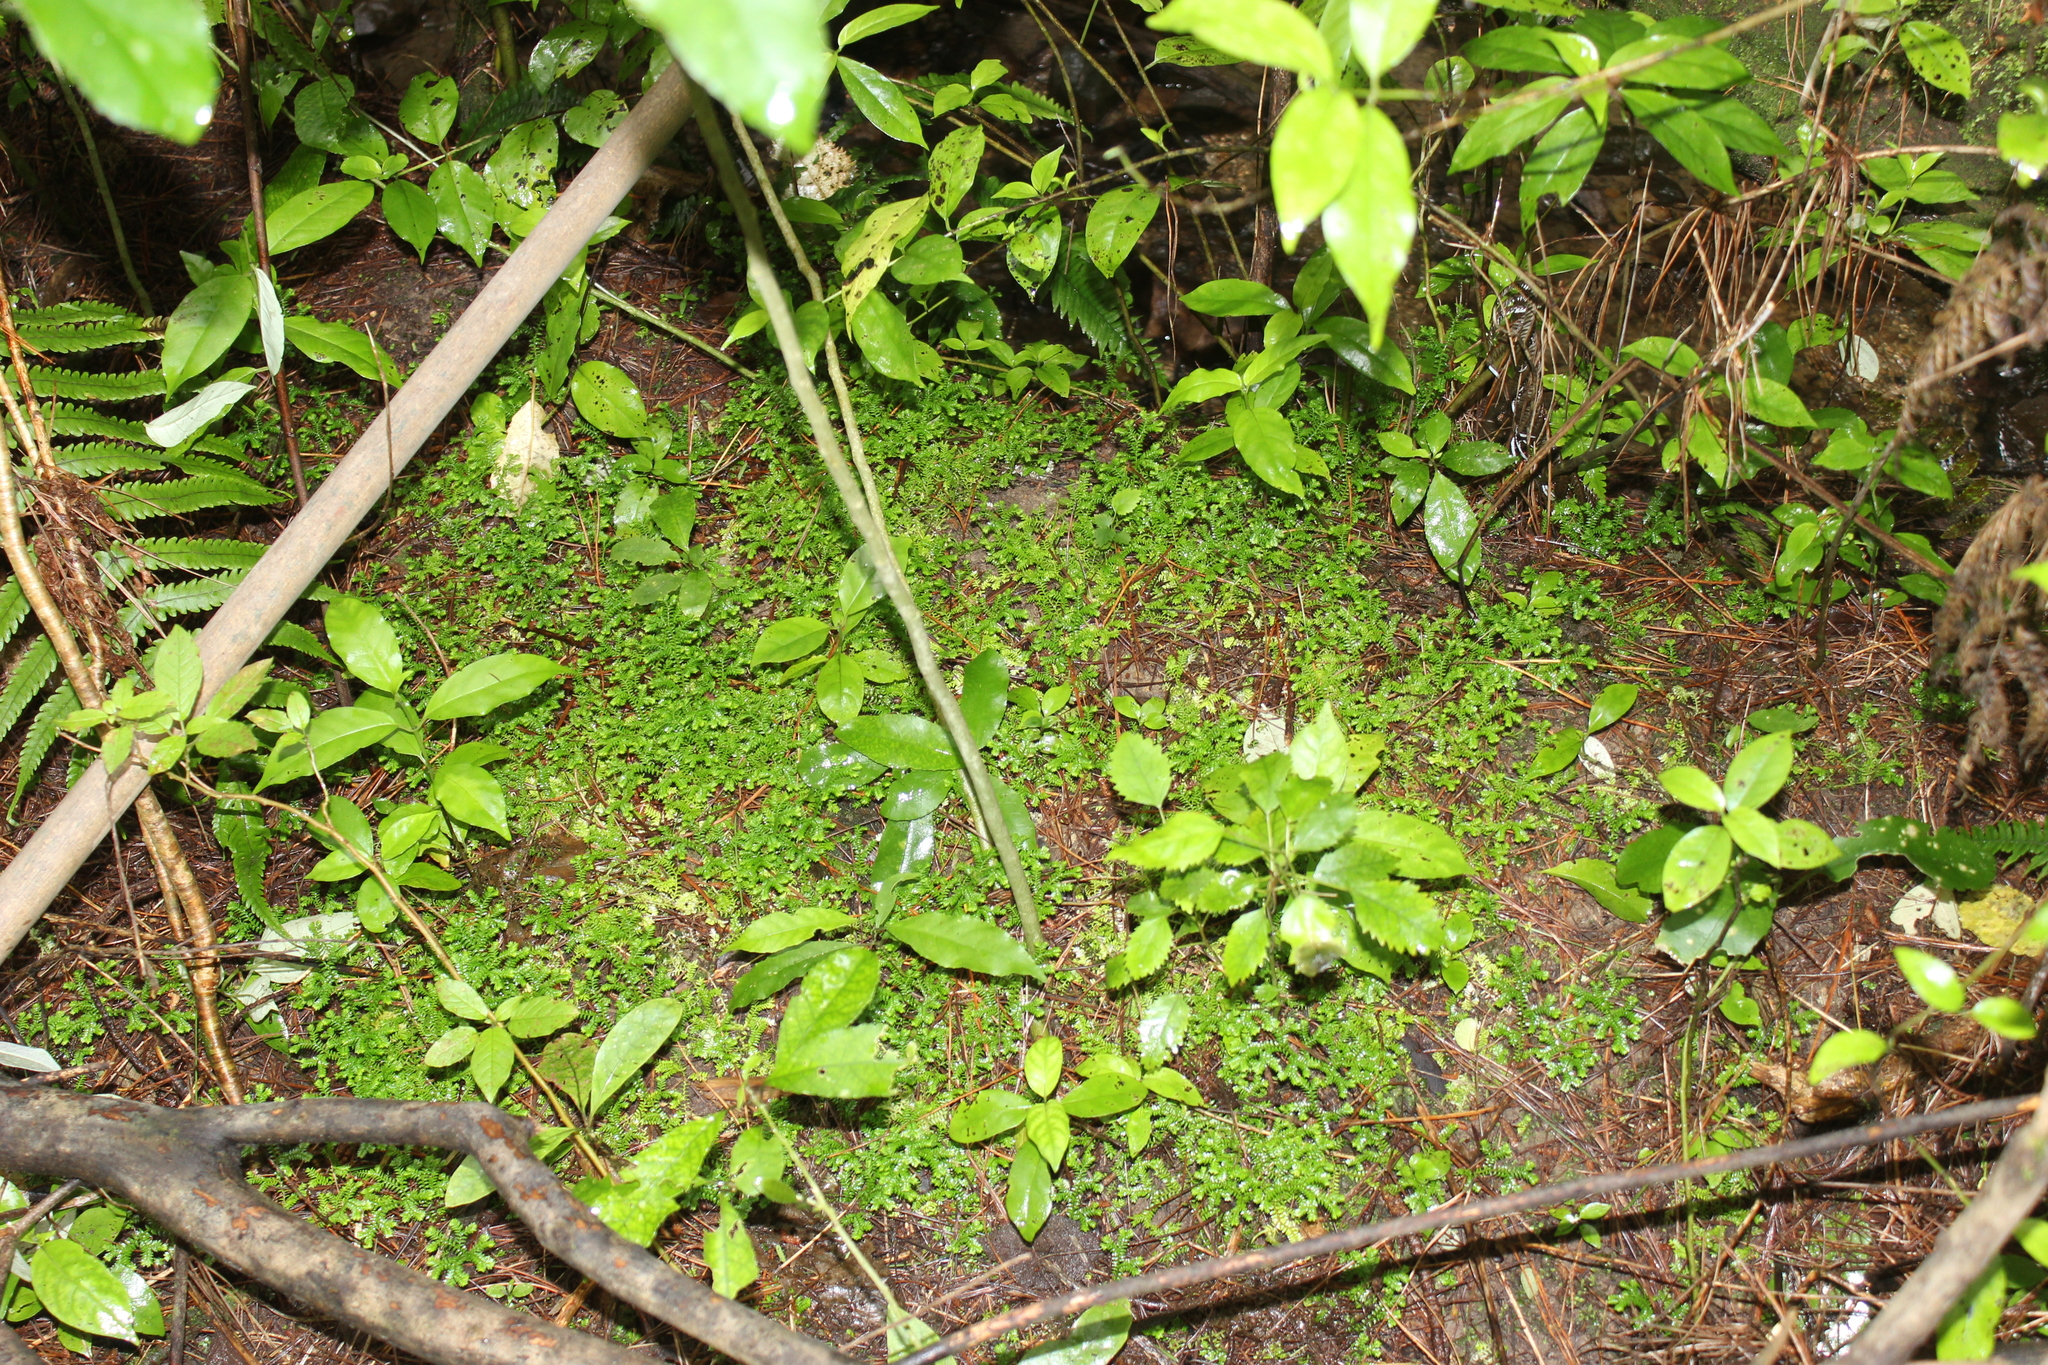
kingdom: Plantae
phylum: Tracheophyta
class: Lycopodiopsida
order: Selaginellales
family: Selaginellaceae
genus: Selaginella
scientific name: Selaginella kraussiana
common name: Krauss' spikemoss
